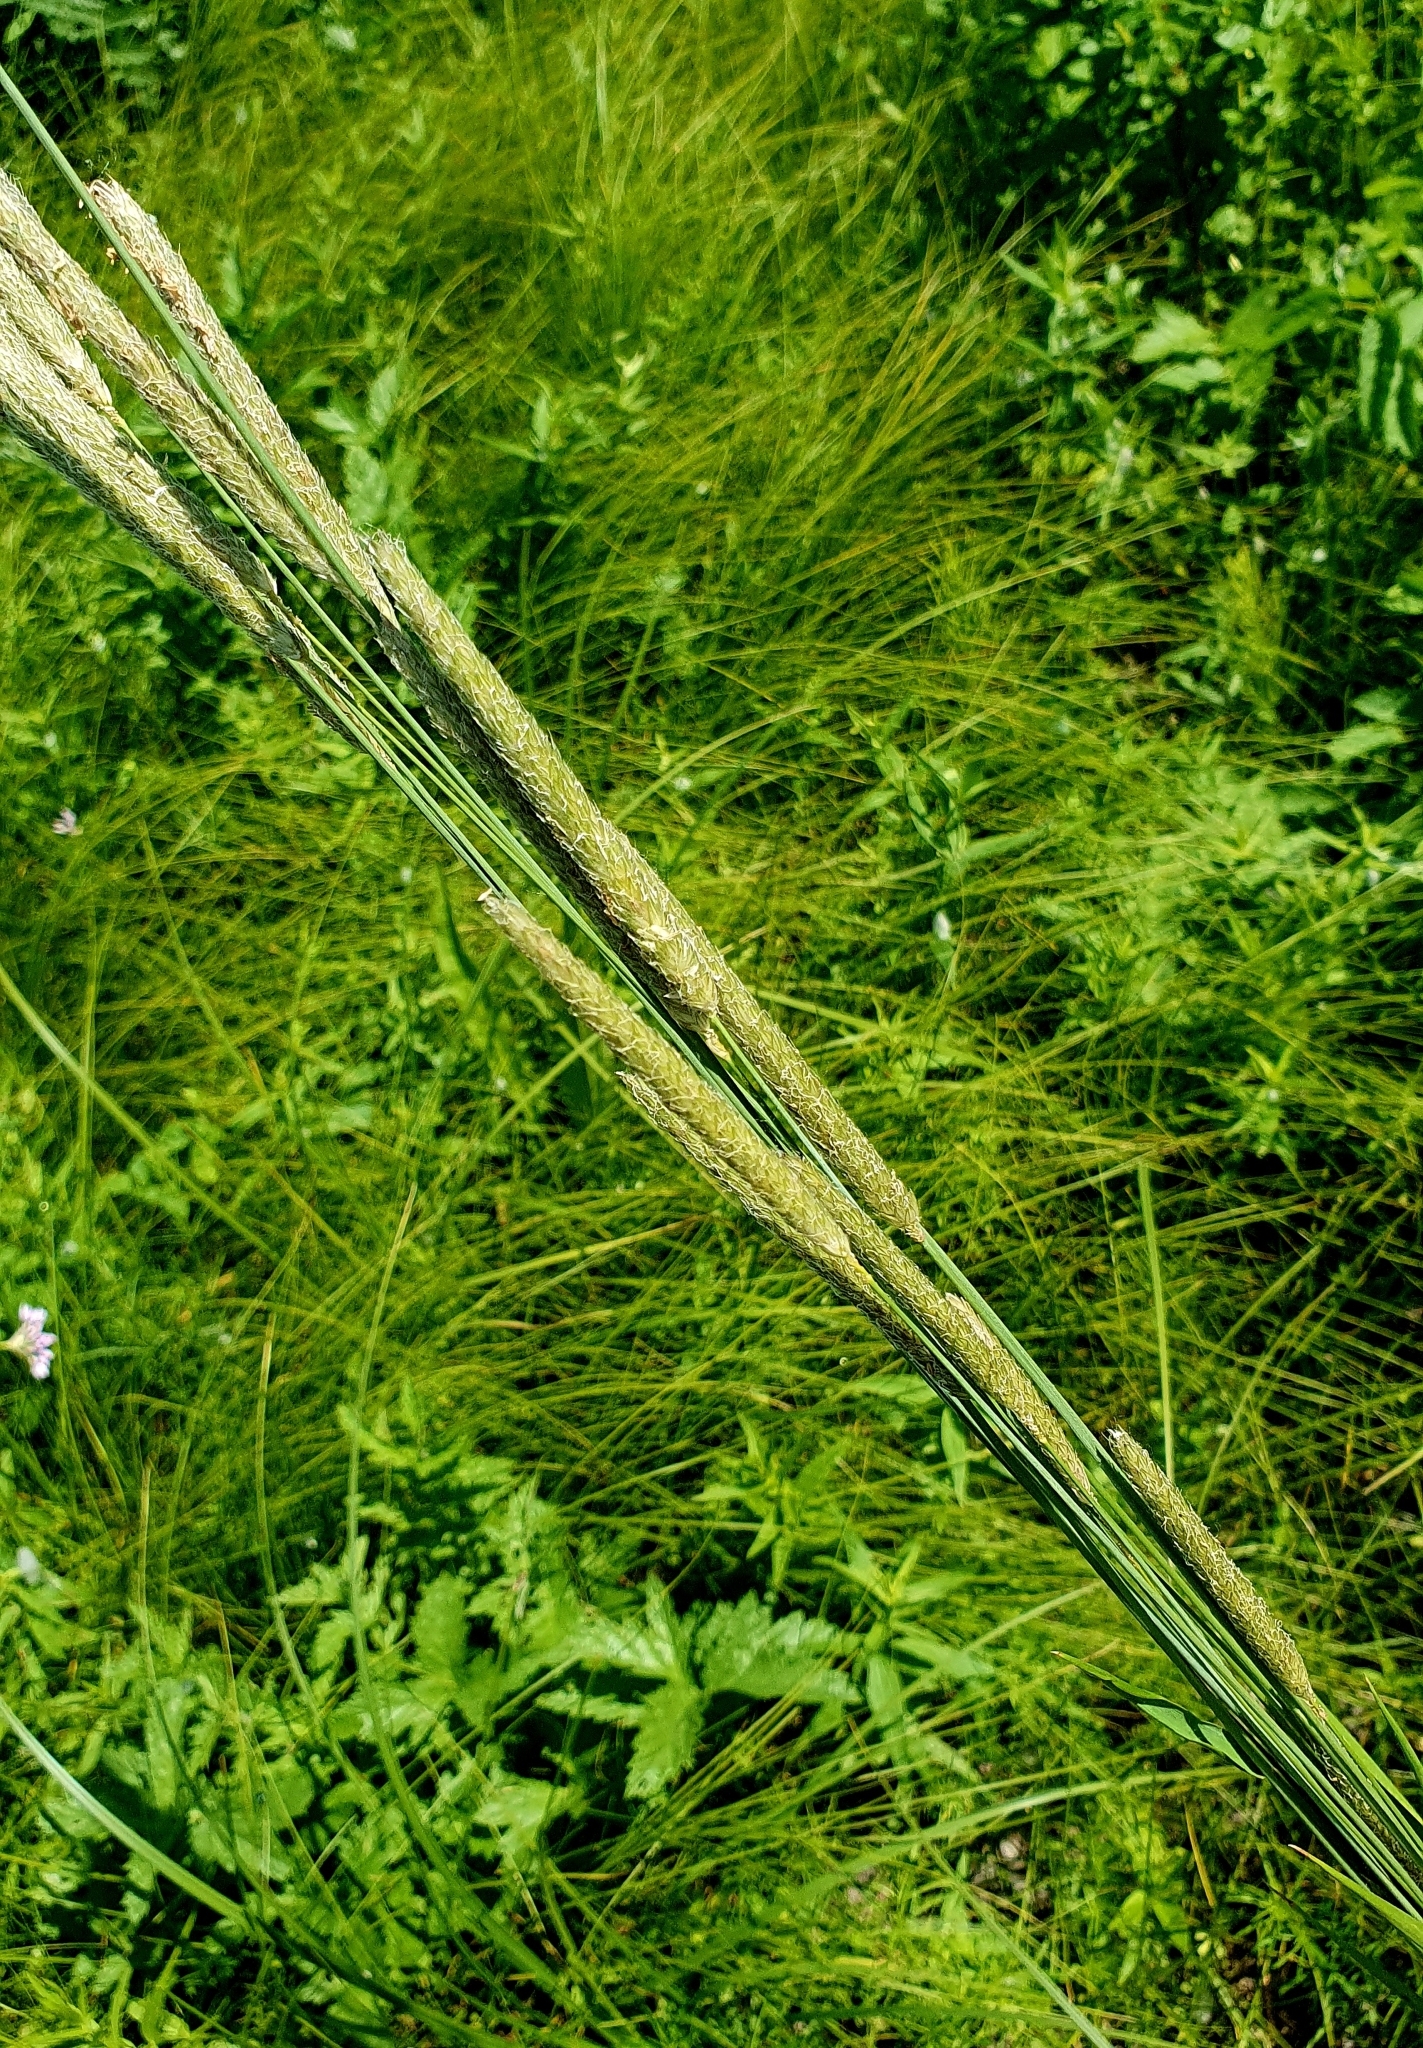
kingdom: Plantae
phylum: Tracheophyta
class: Liliopsida
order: Poales
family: Poaceae
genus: Alopecurus
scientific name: Alopecurus pratensis
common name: Meadow foxtail
